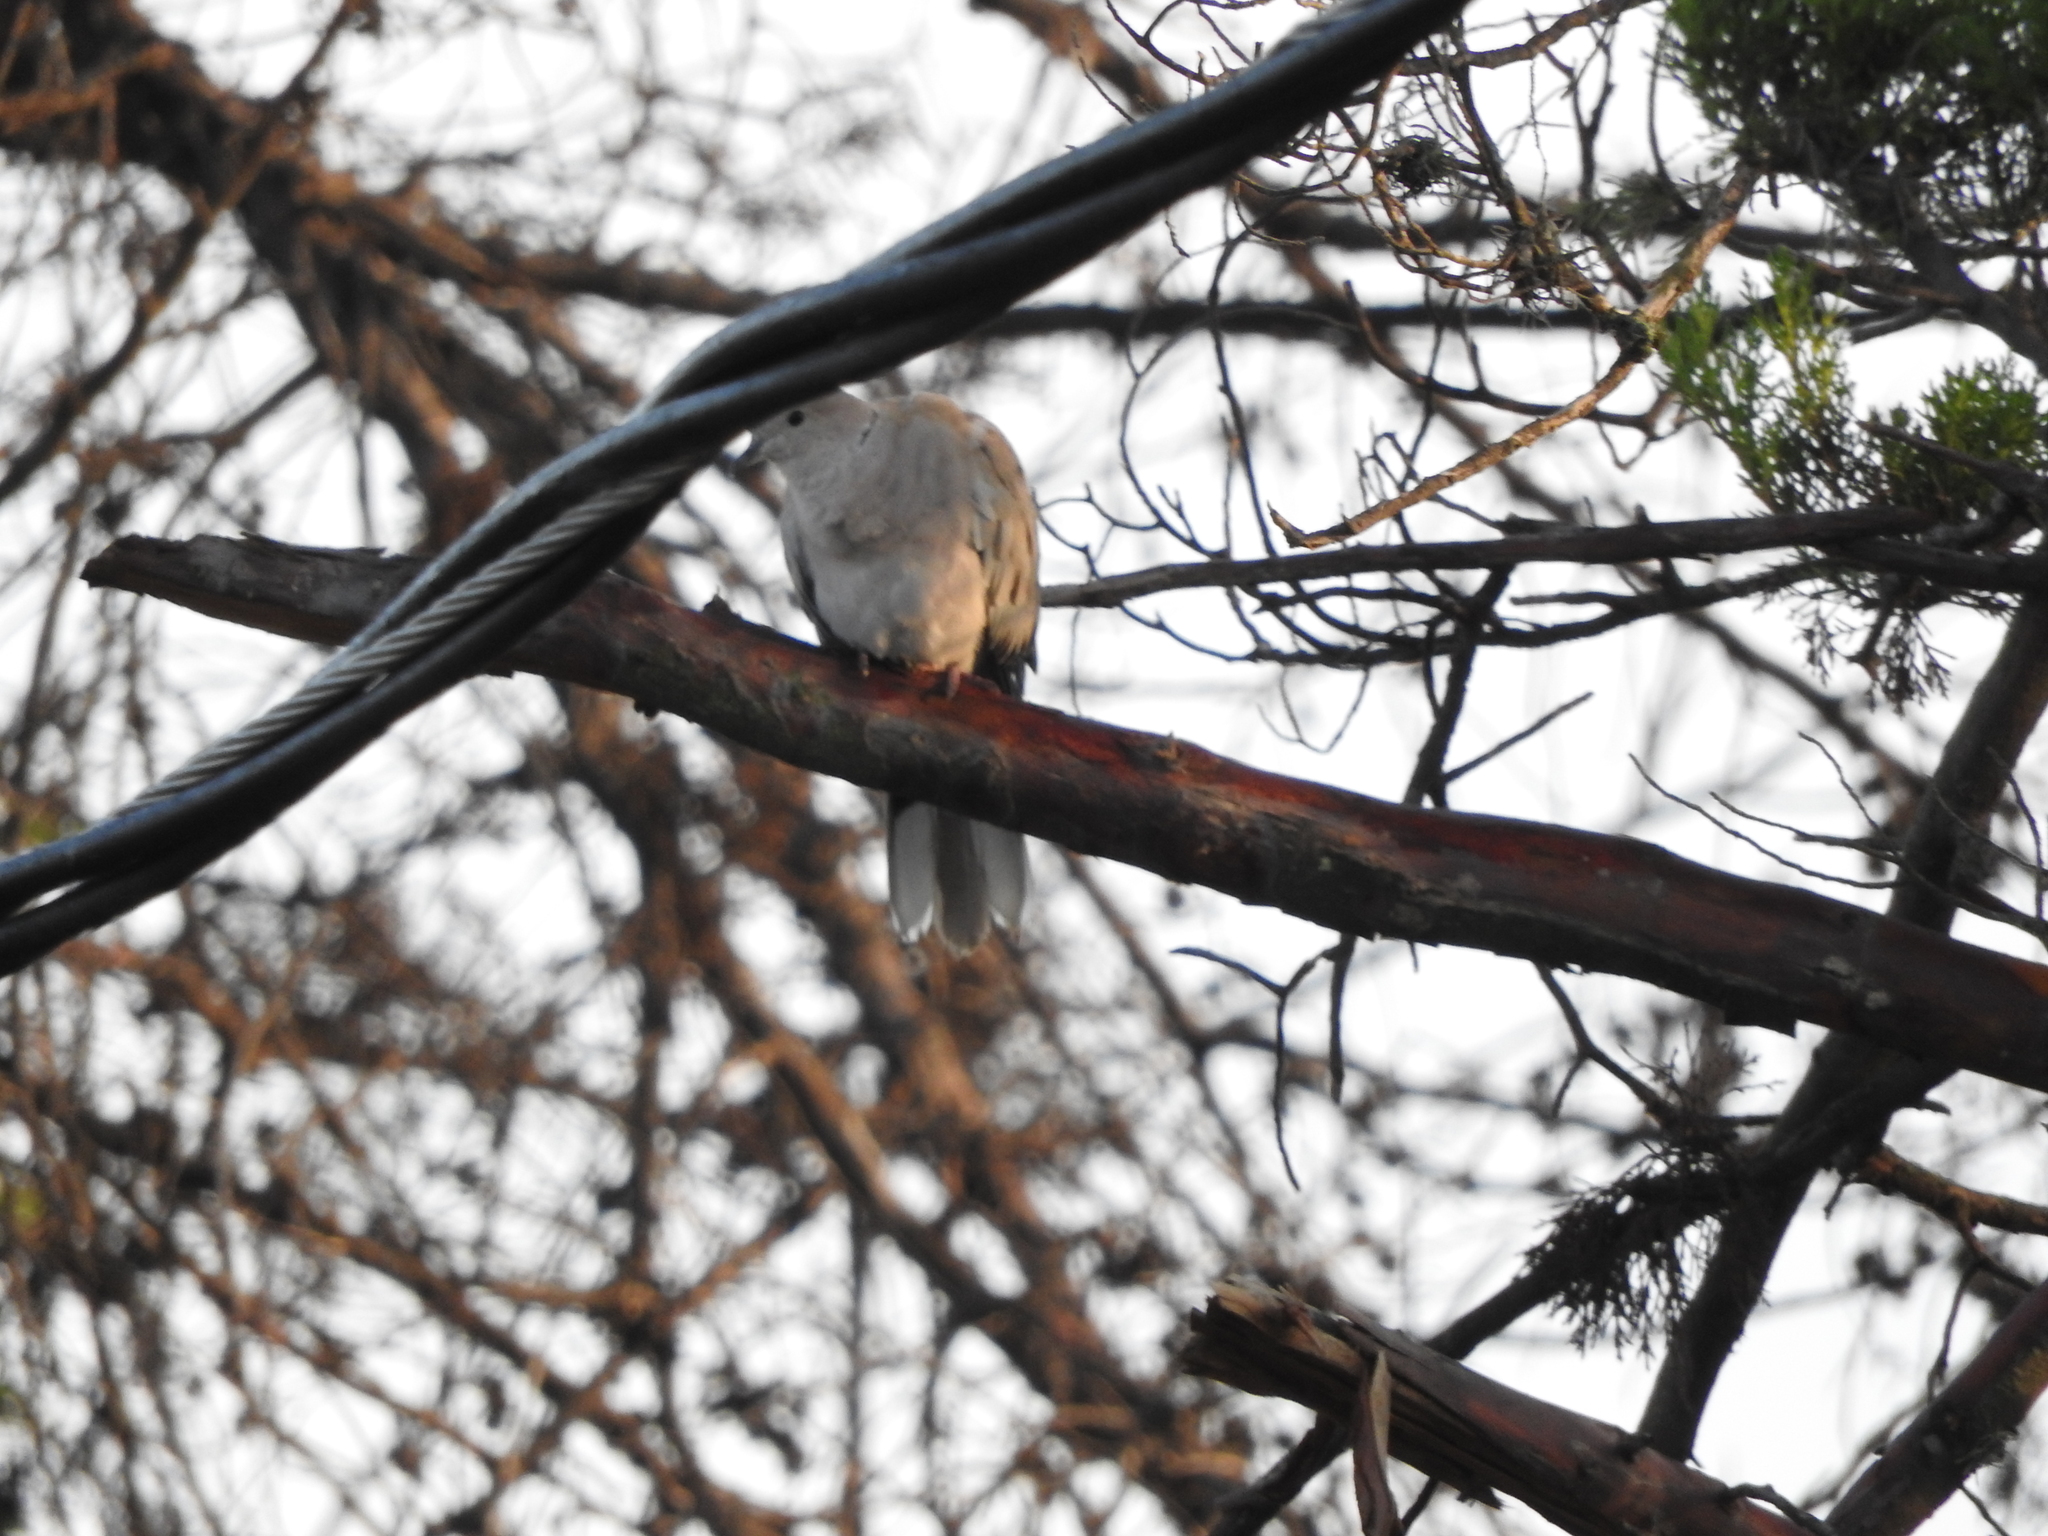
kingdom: Animalia
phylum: Chordata
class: Aves
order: Columbiformes
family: Columbidae
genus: Streptopelia
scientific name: Streptopelia decaocto
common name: Eurasian collared dove
